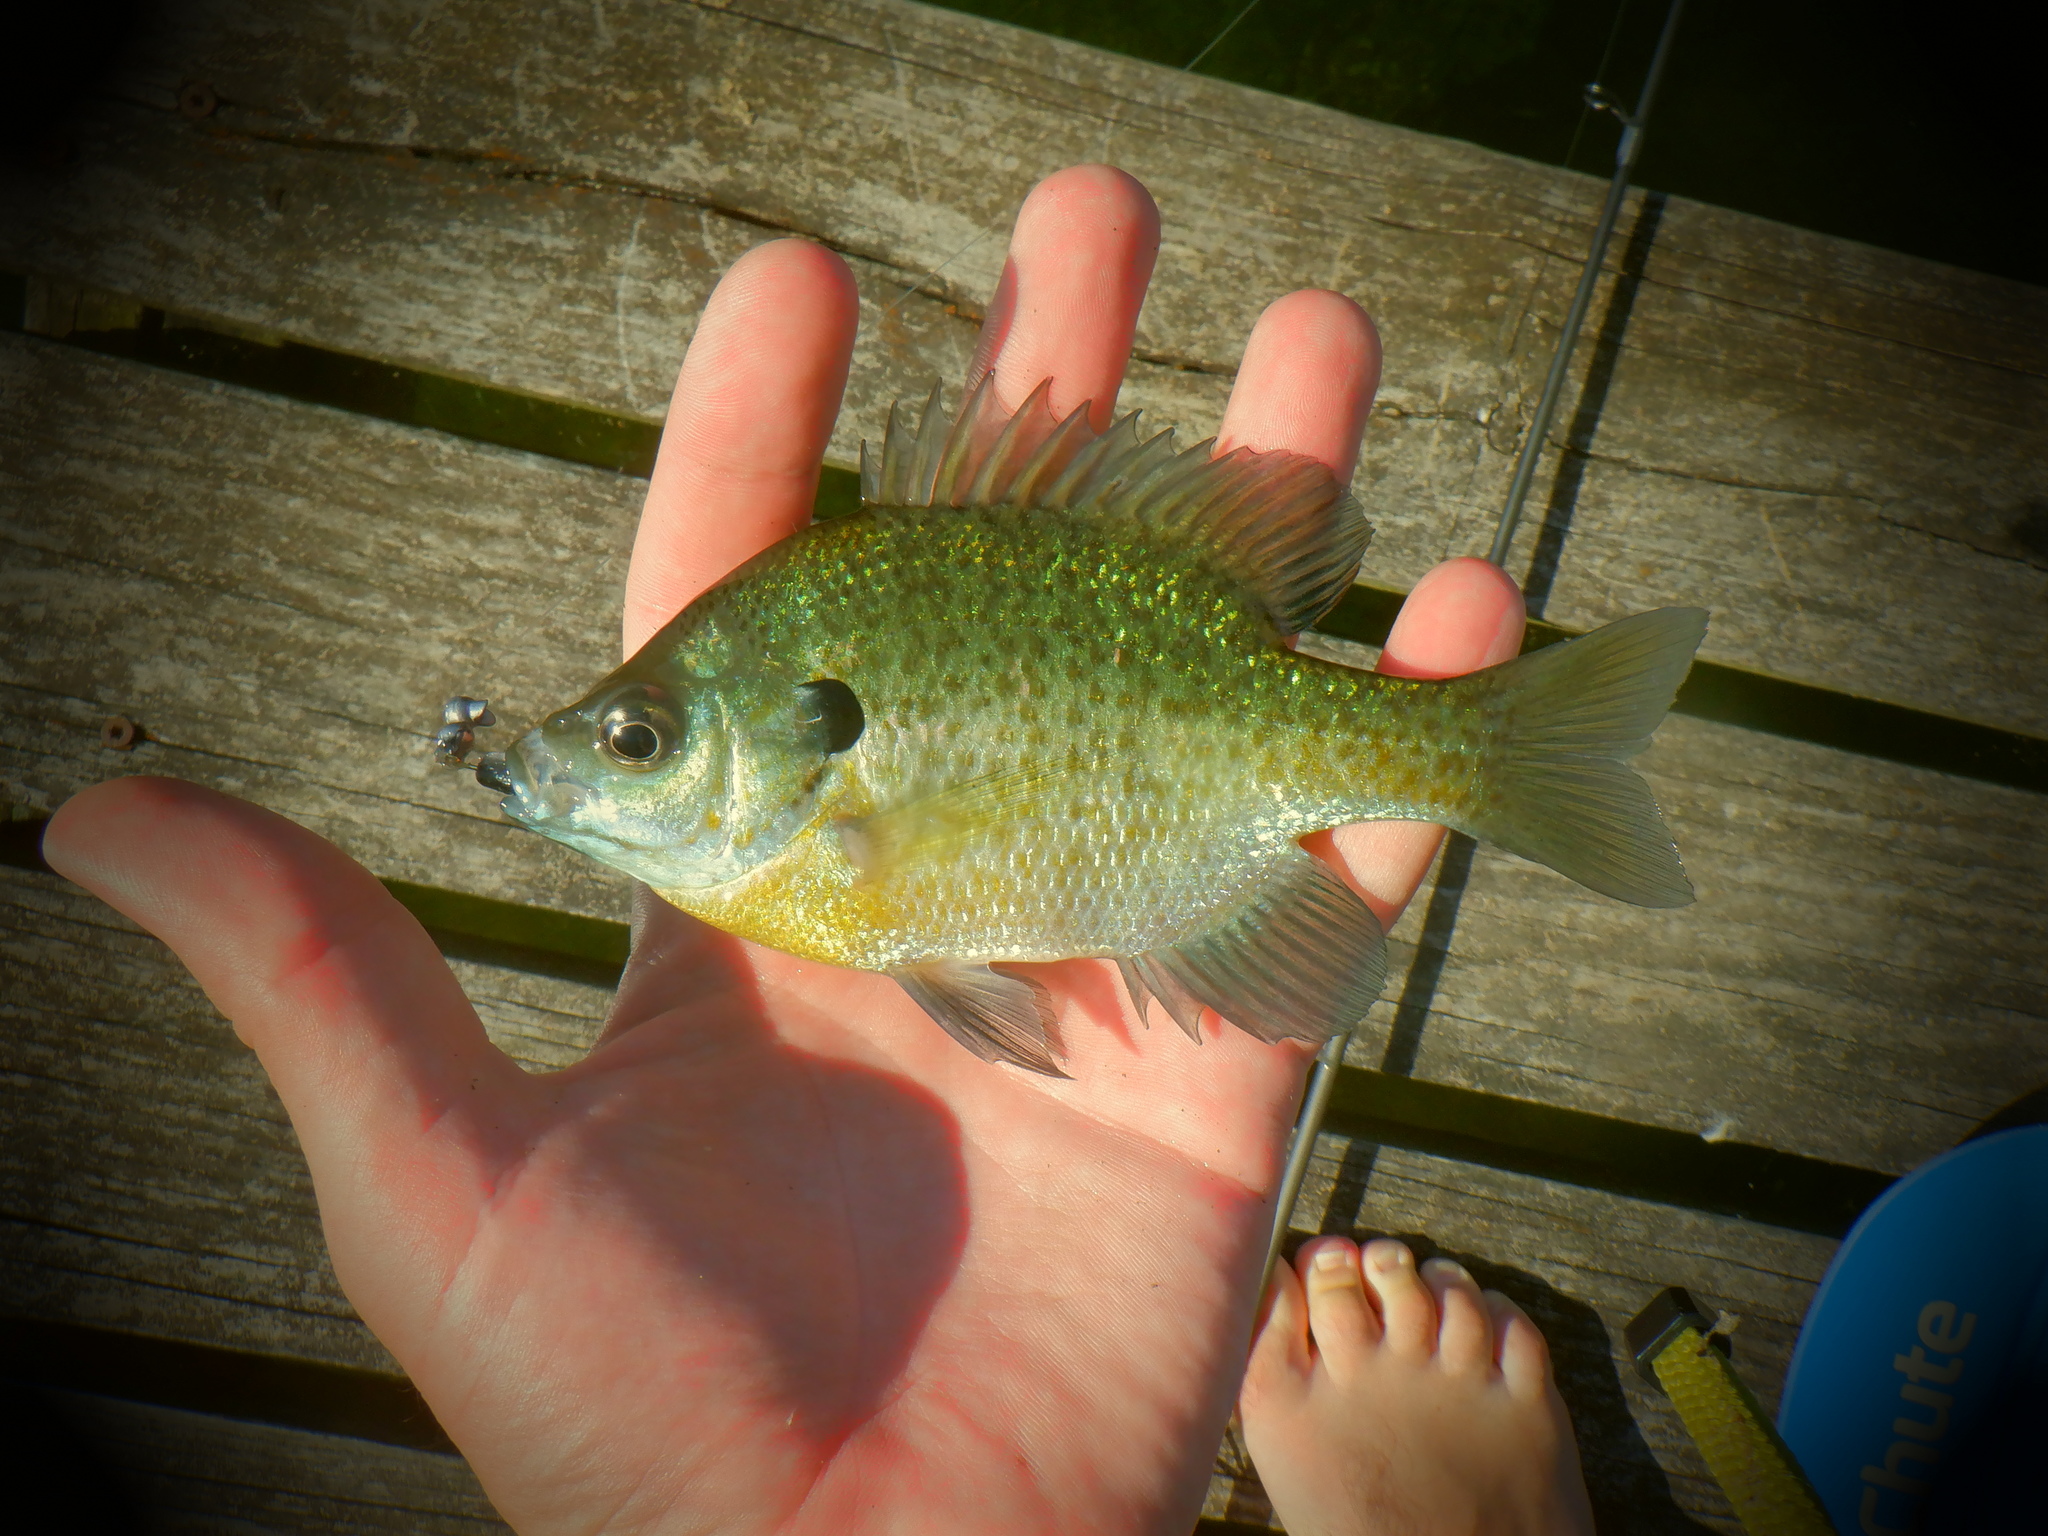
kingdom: Animalia
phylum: Chordata
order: Perciformes
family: Centrarchidae
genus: Lepomis
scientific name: Lepomis macrochirus
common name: Bluegill
